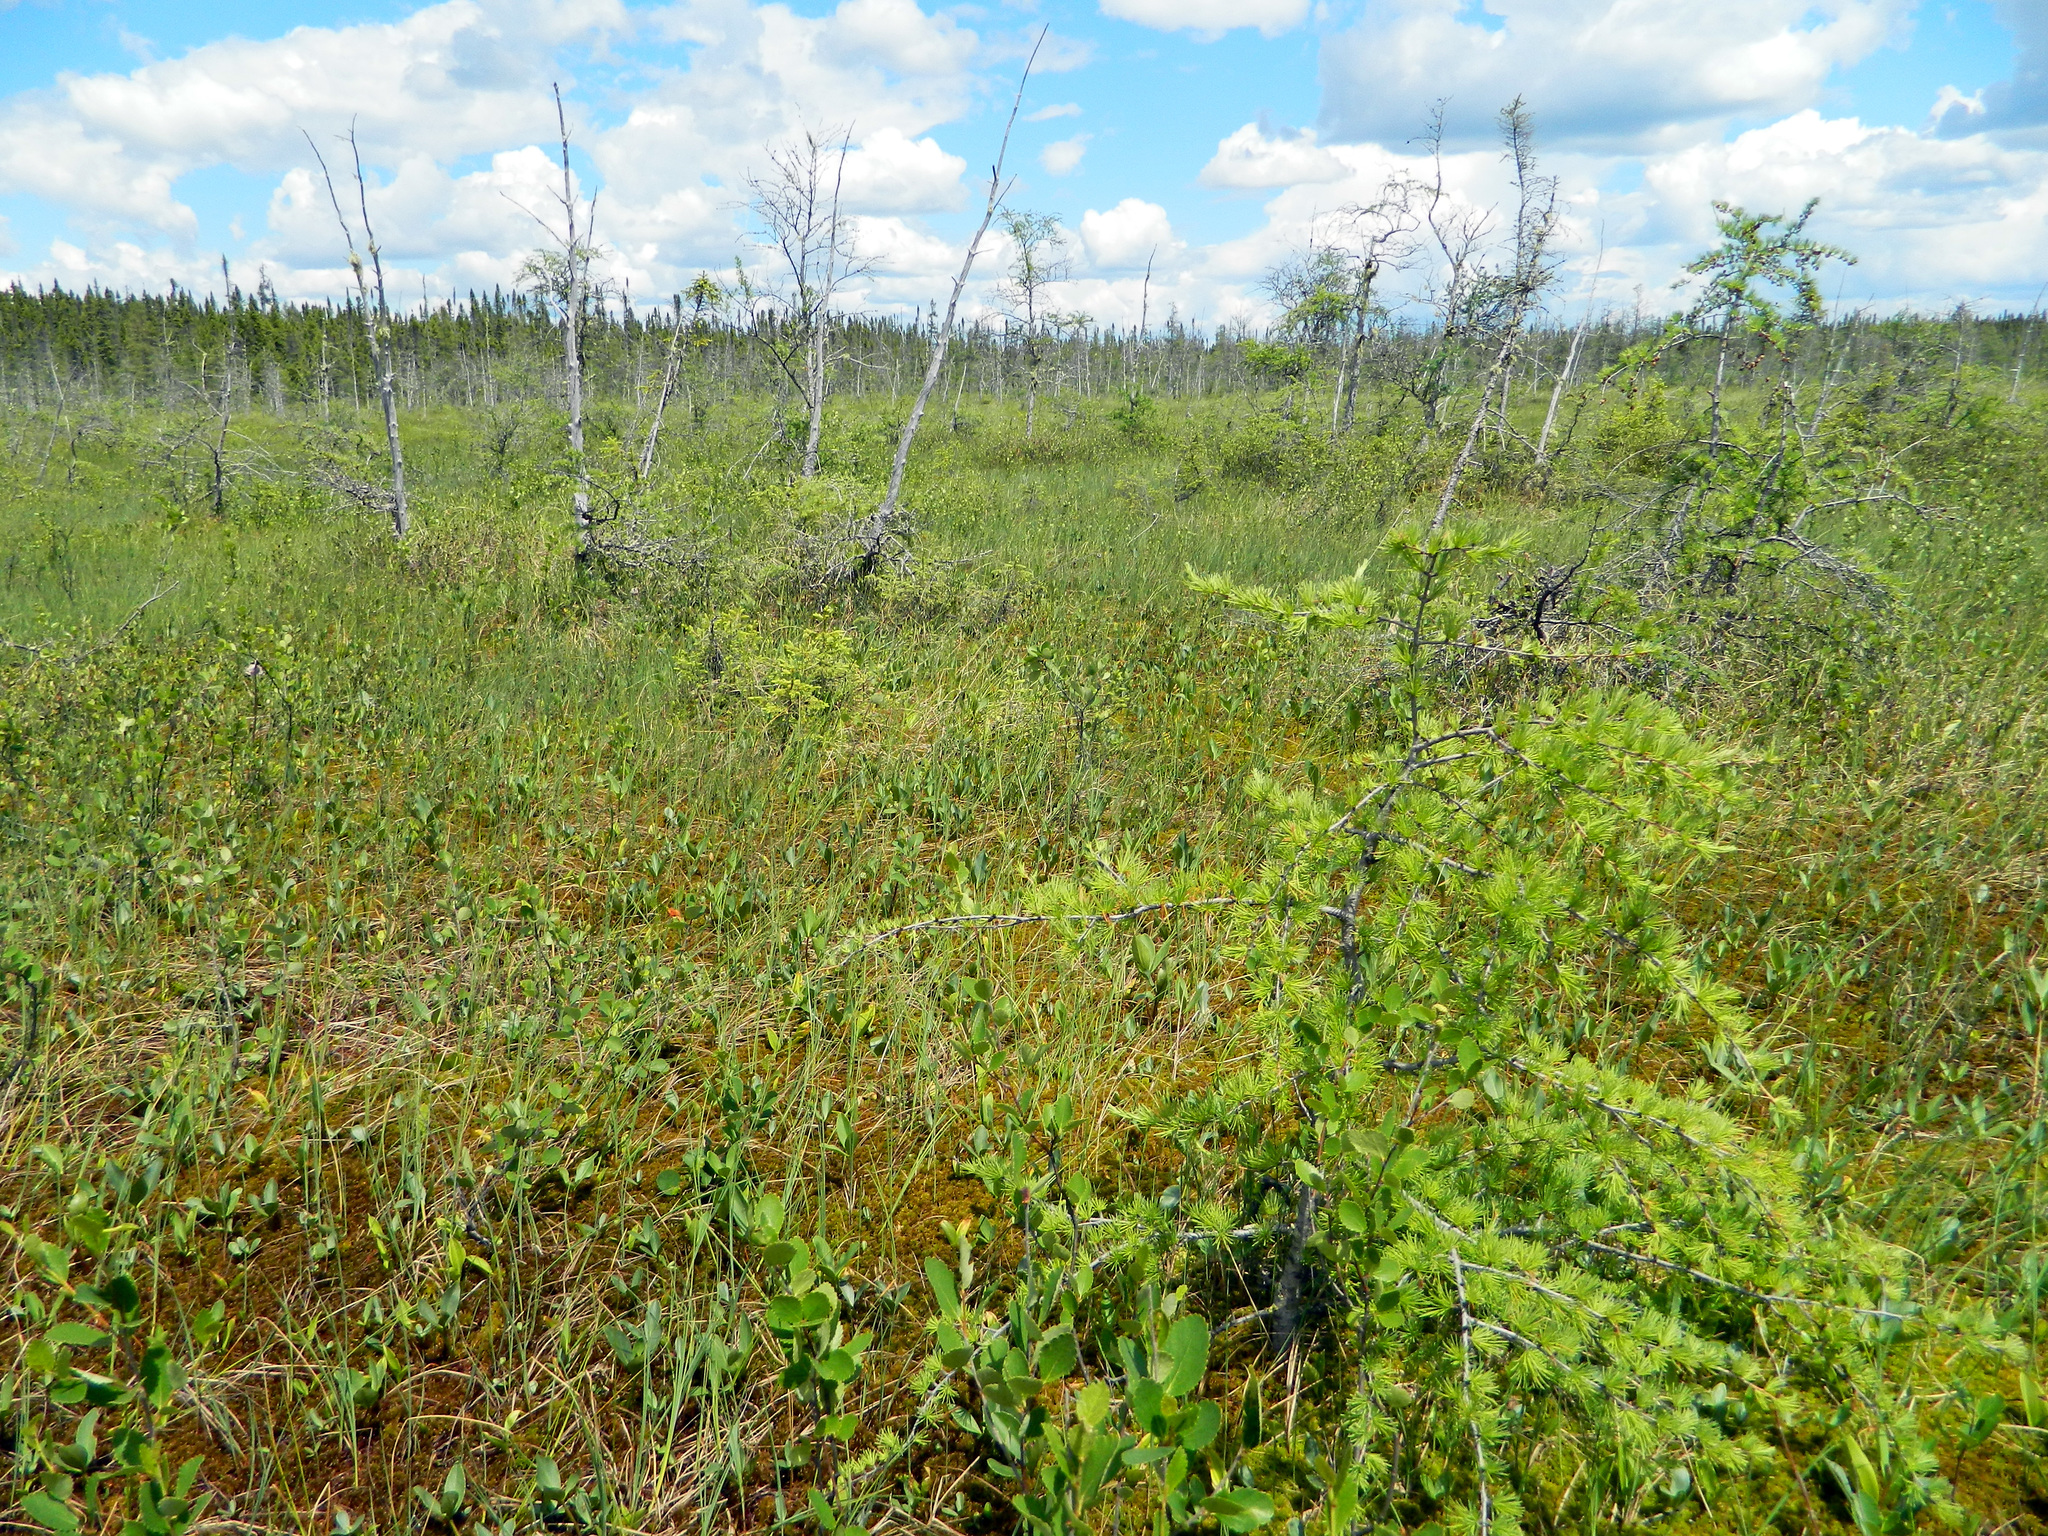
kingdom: Plantae
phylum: Tracheophyta
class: Pinopsida
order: Pinales
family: Pinaceae
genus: Larix
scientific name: Larix laricina
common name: American larch
